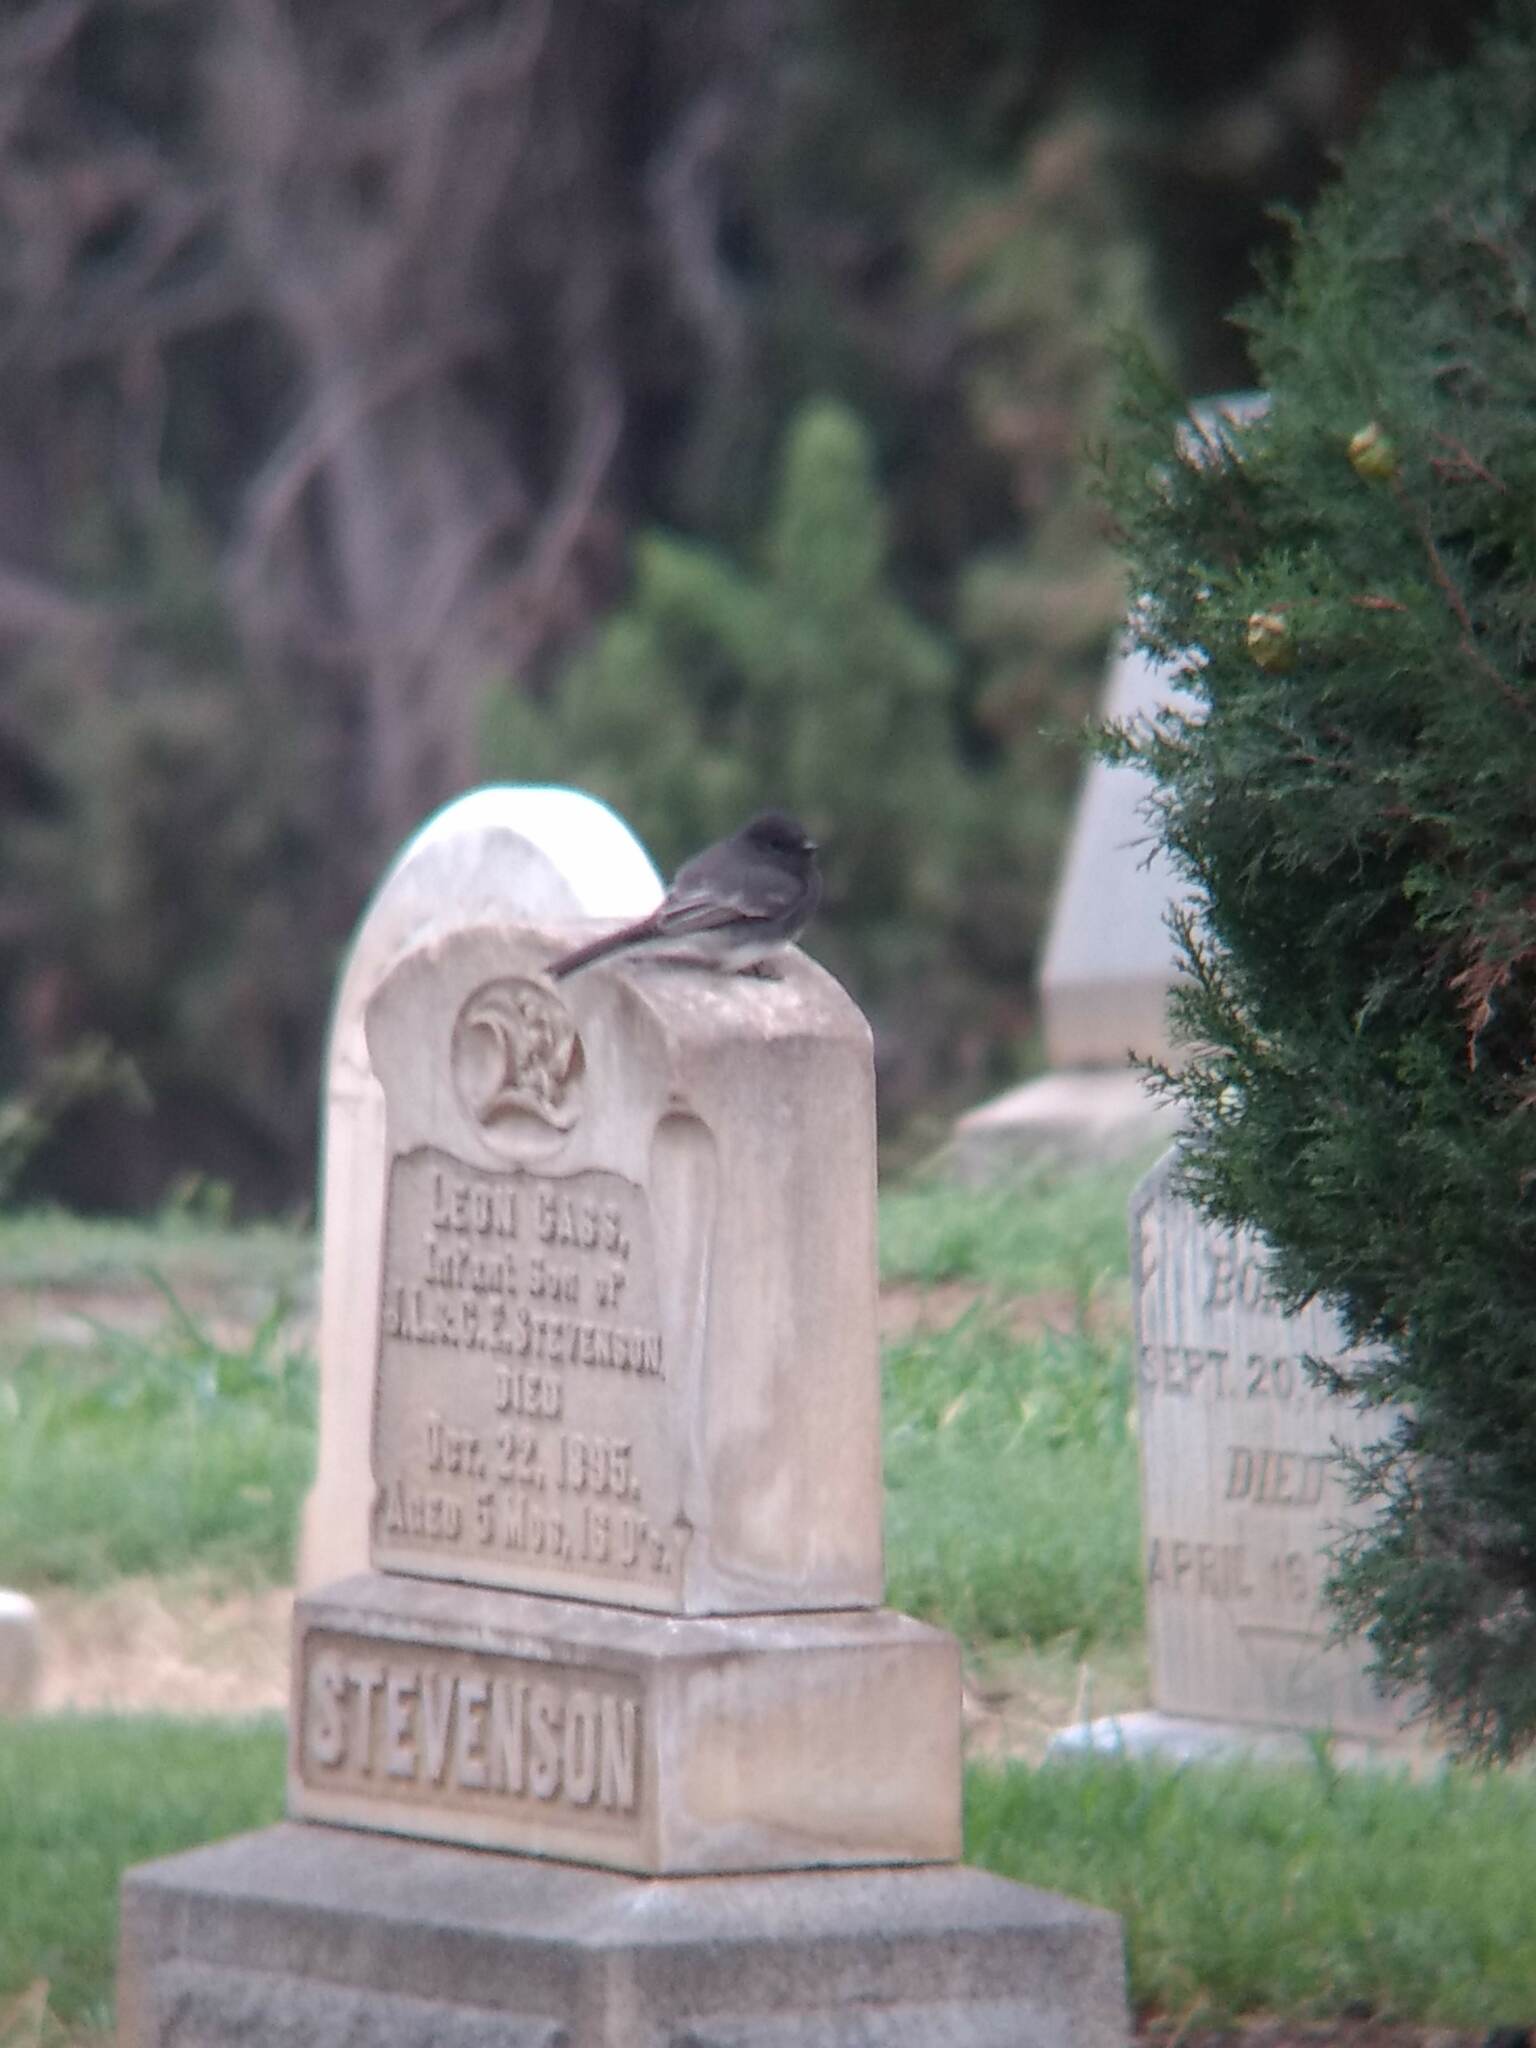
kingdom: Animalia
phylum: Chordata
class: Aves
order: Passeriformes
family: Tyrannidae
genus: Sayornis
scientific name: Sayornis nigricans
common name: Black phoebe
